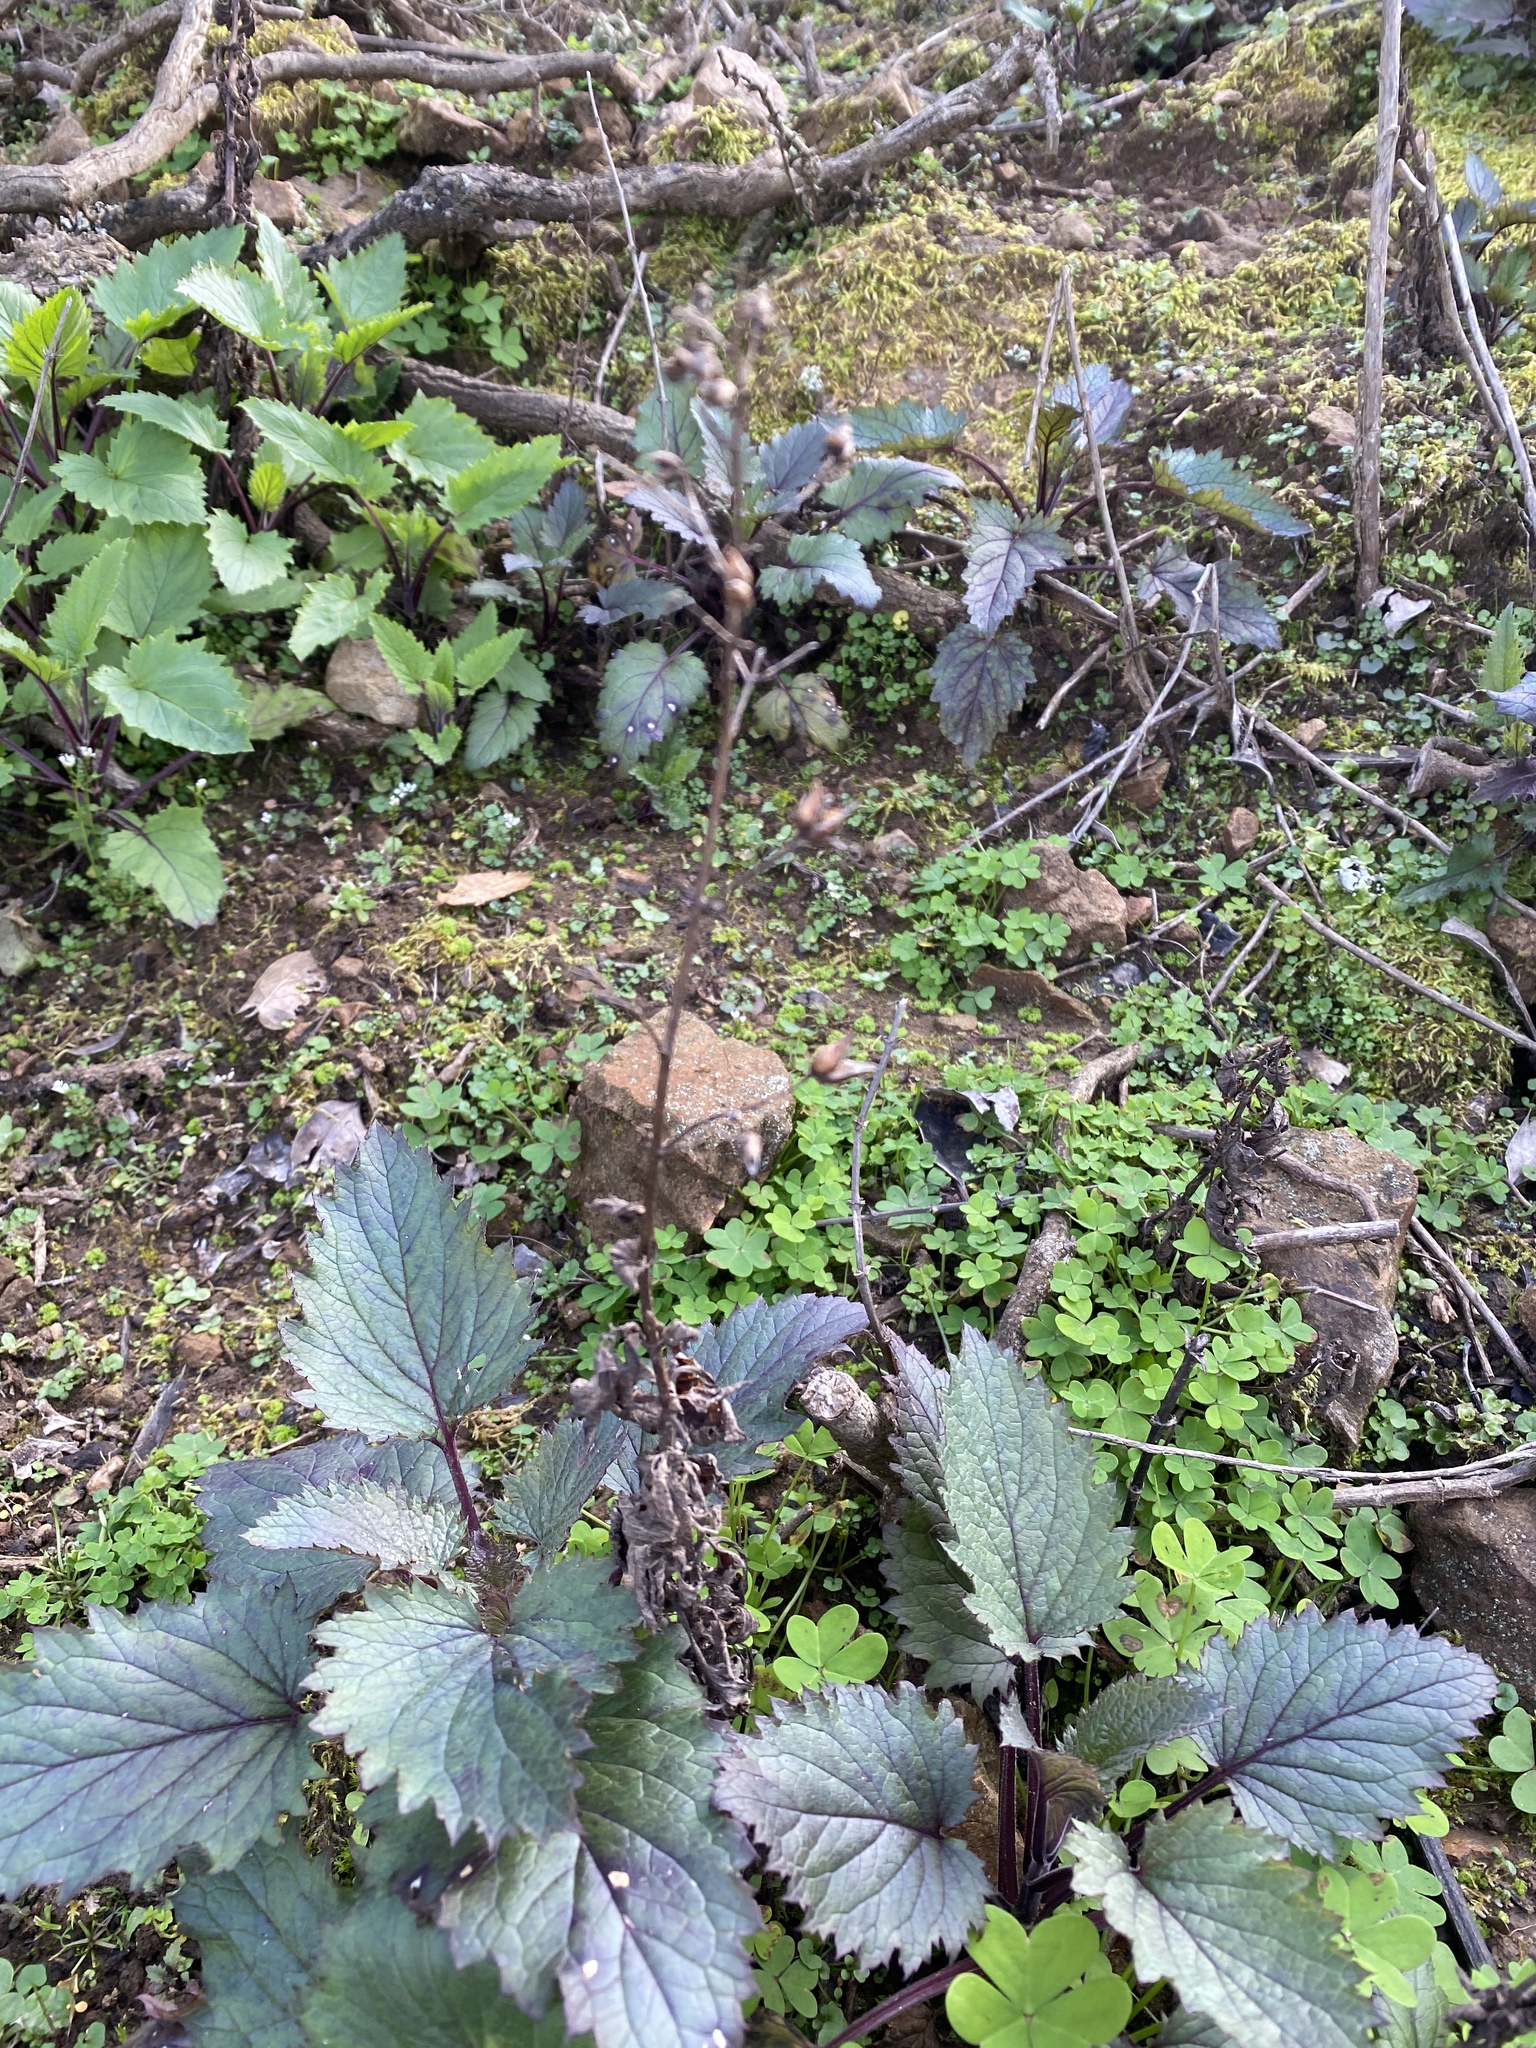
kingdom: Plantae
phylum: Tracheophyta
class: Magnoliopsida
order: Lamiales
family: Scrophulariaceae
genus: Scrophularia
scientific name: Scrophularia californica
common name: California figwort
